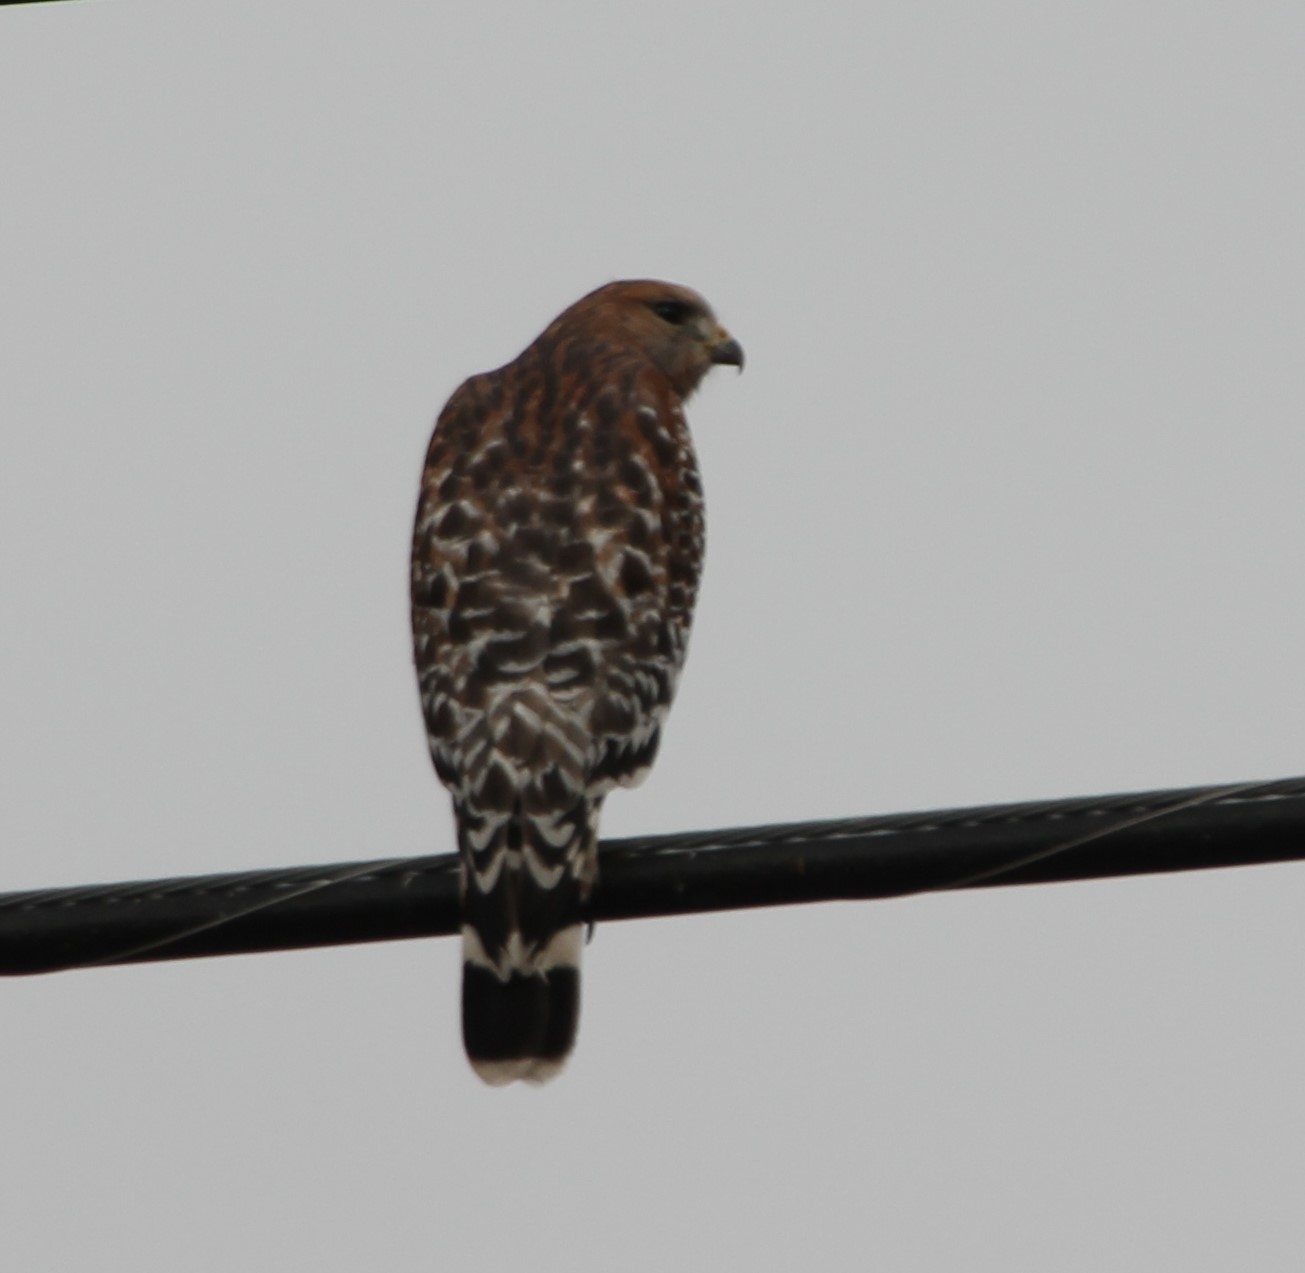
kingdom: Animalia
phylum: Chordata
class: Aves
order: Accipitriformes
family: Accipitridae
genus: Buteo
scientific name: Buteo lineatus
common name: Red-shouldered hawk
